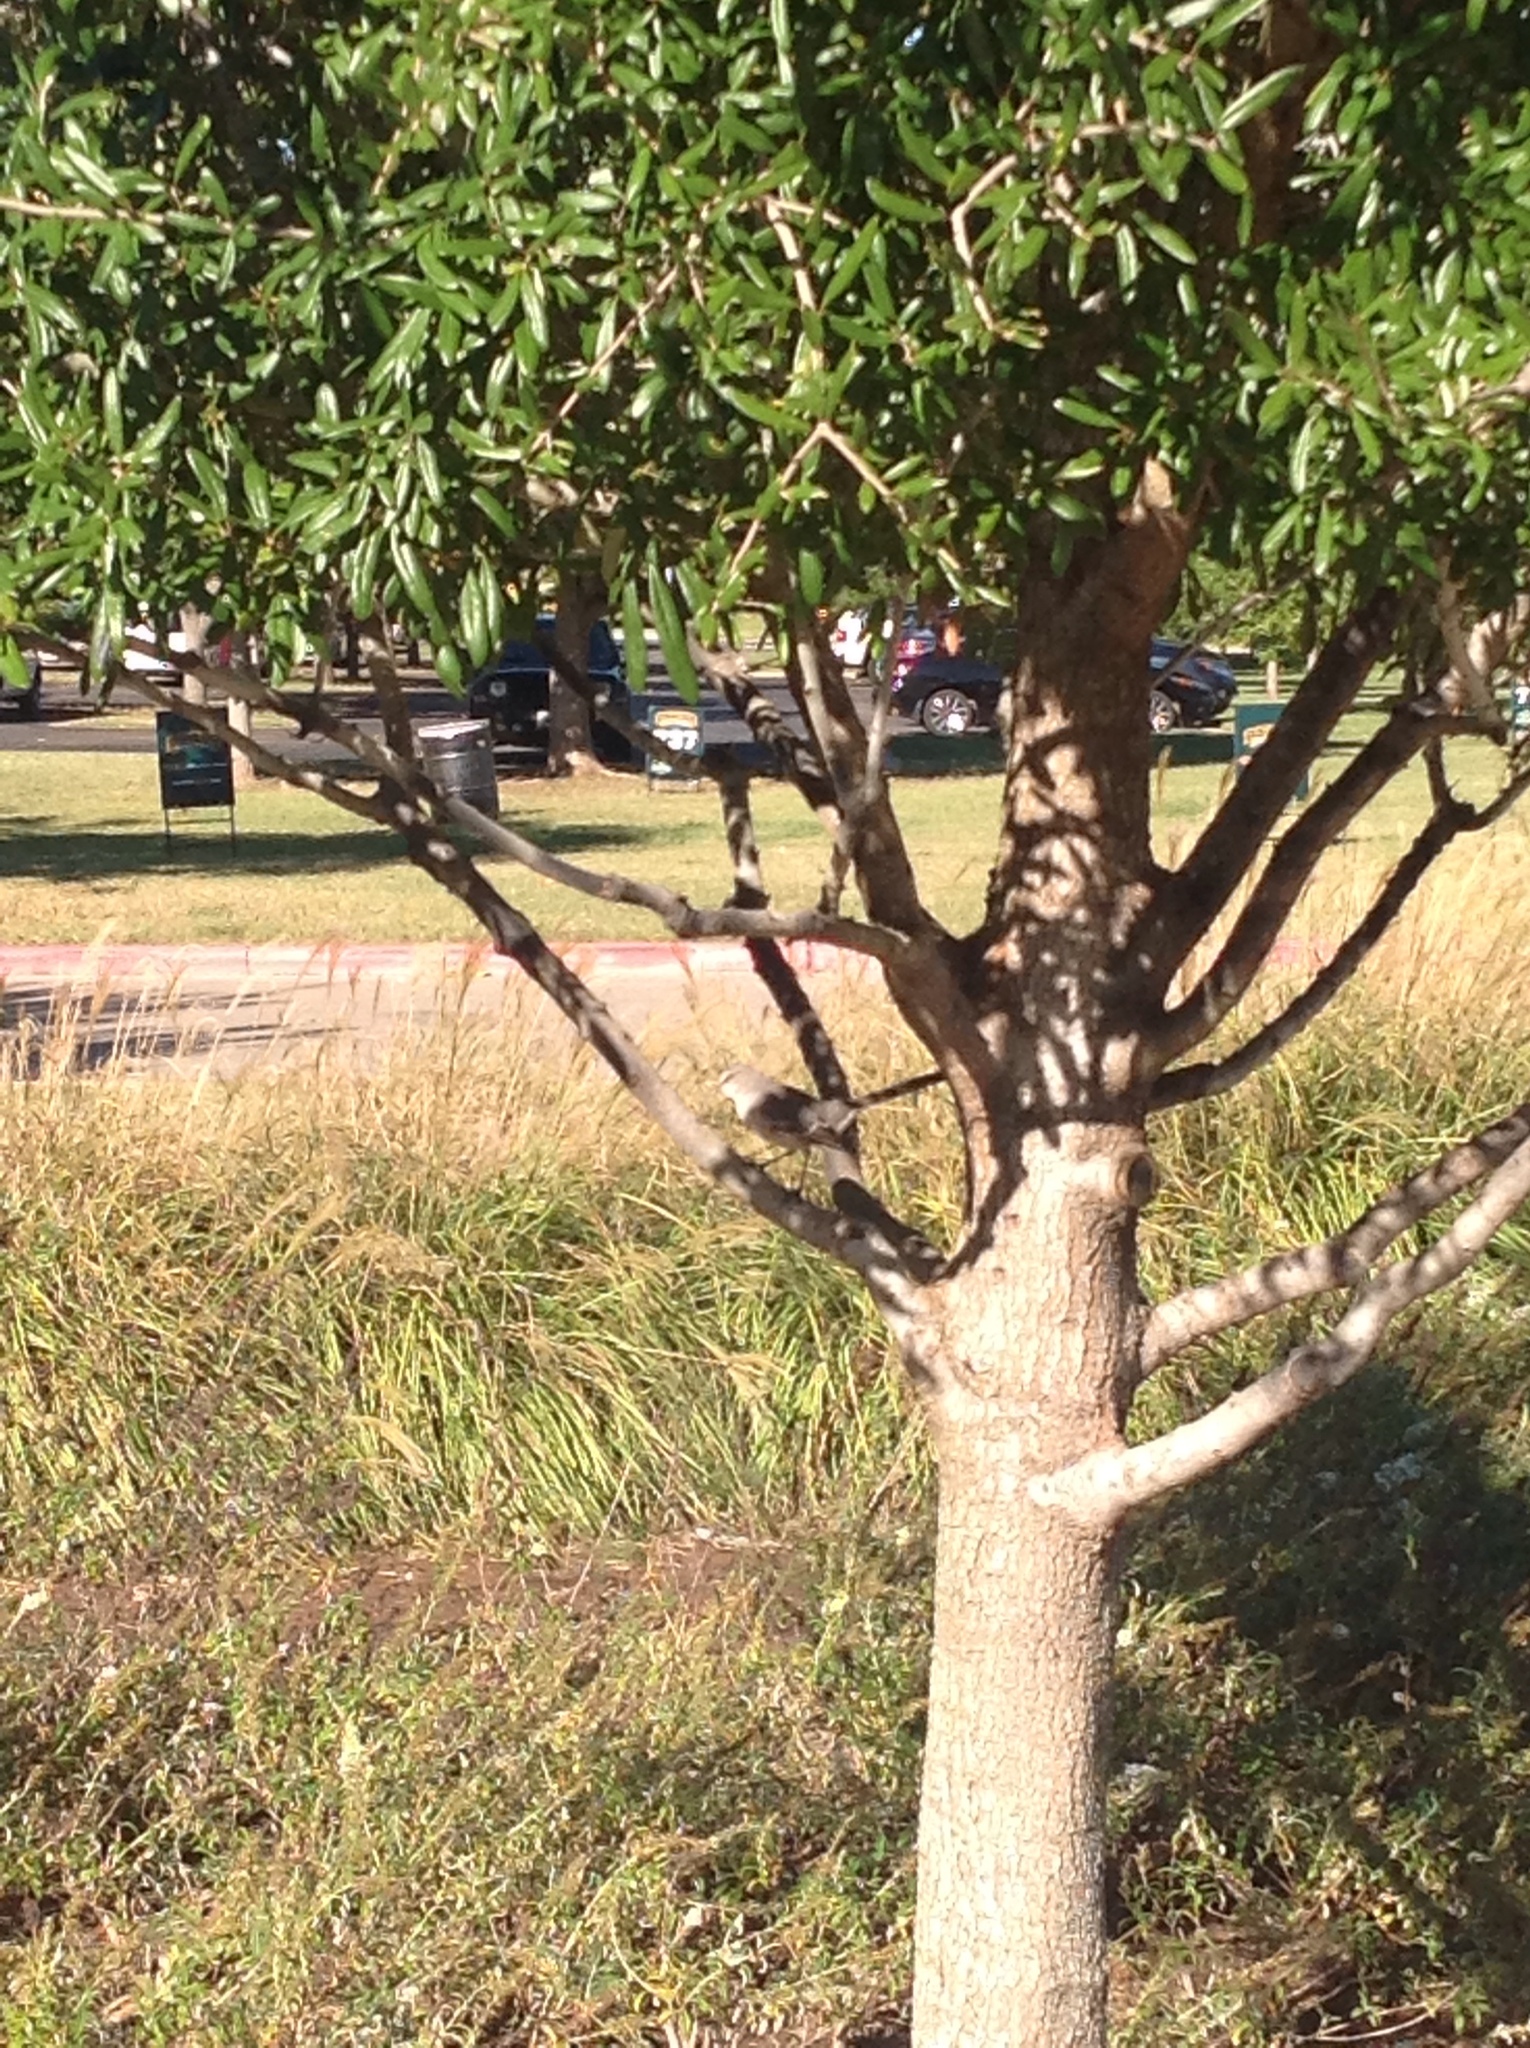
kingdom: Animalia
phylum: Chordata
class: Aves
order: Passeriformes
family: Mimidae
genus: Mimus
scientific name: Mimus polyglottos
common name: Northern mockingbird
